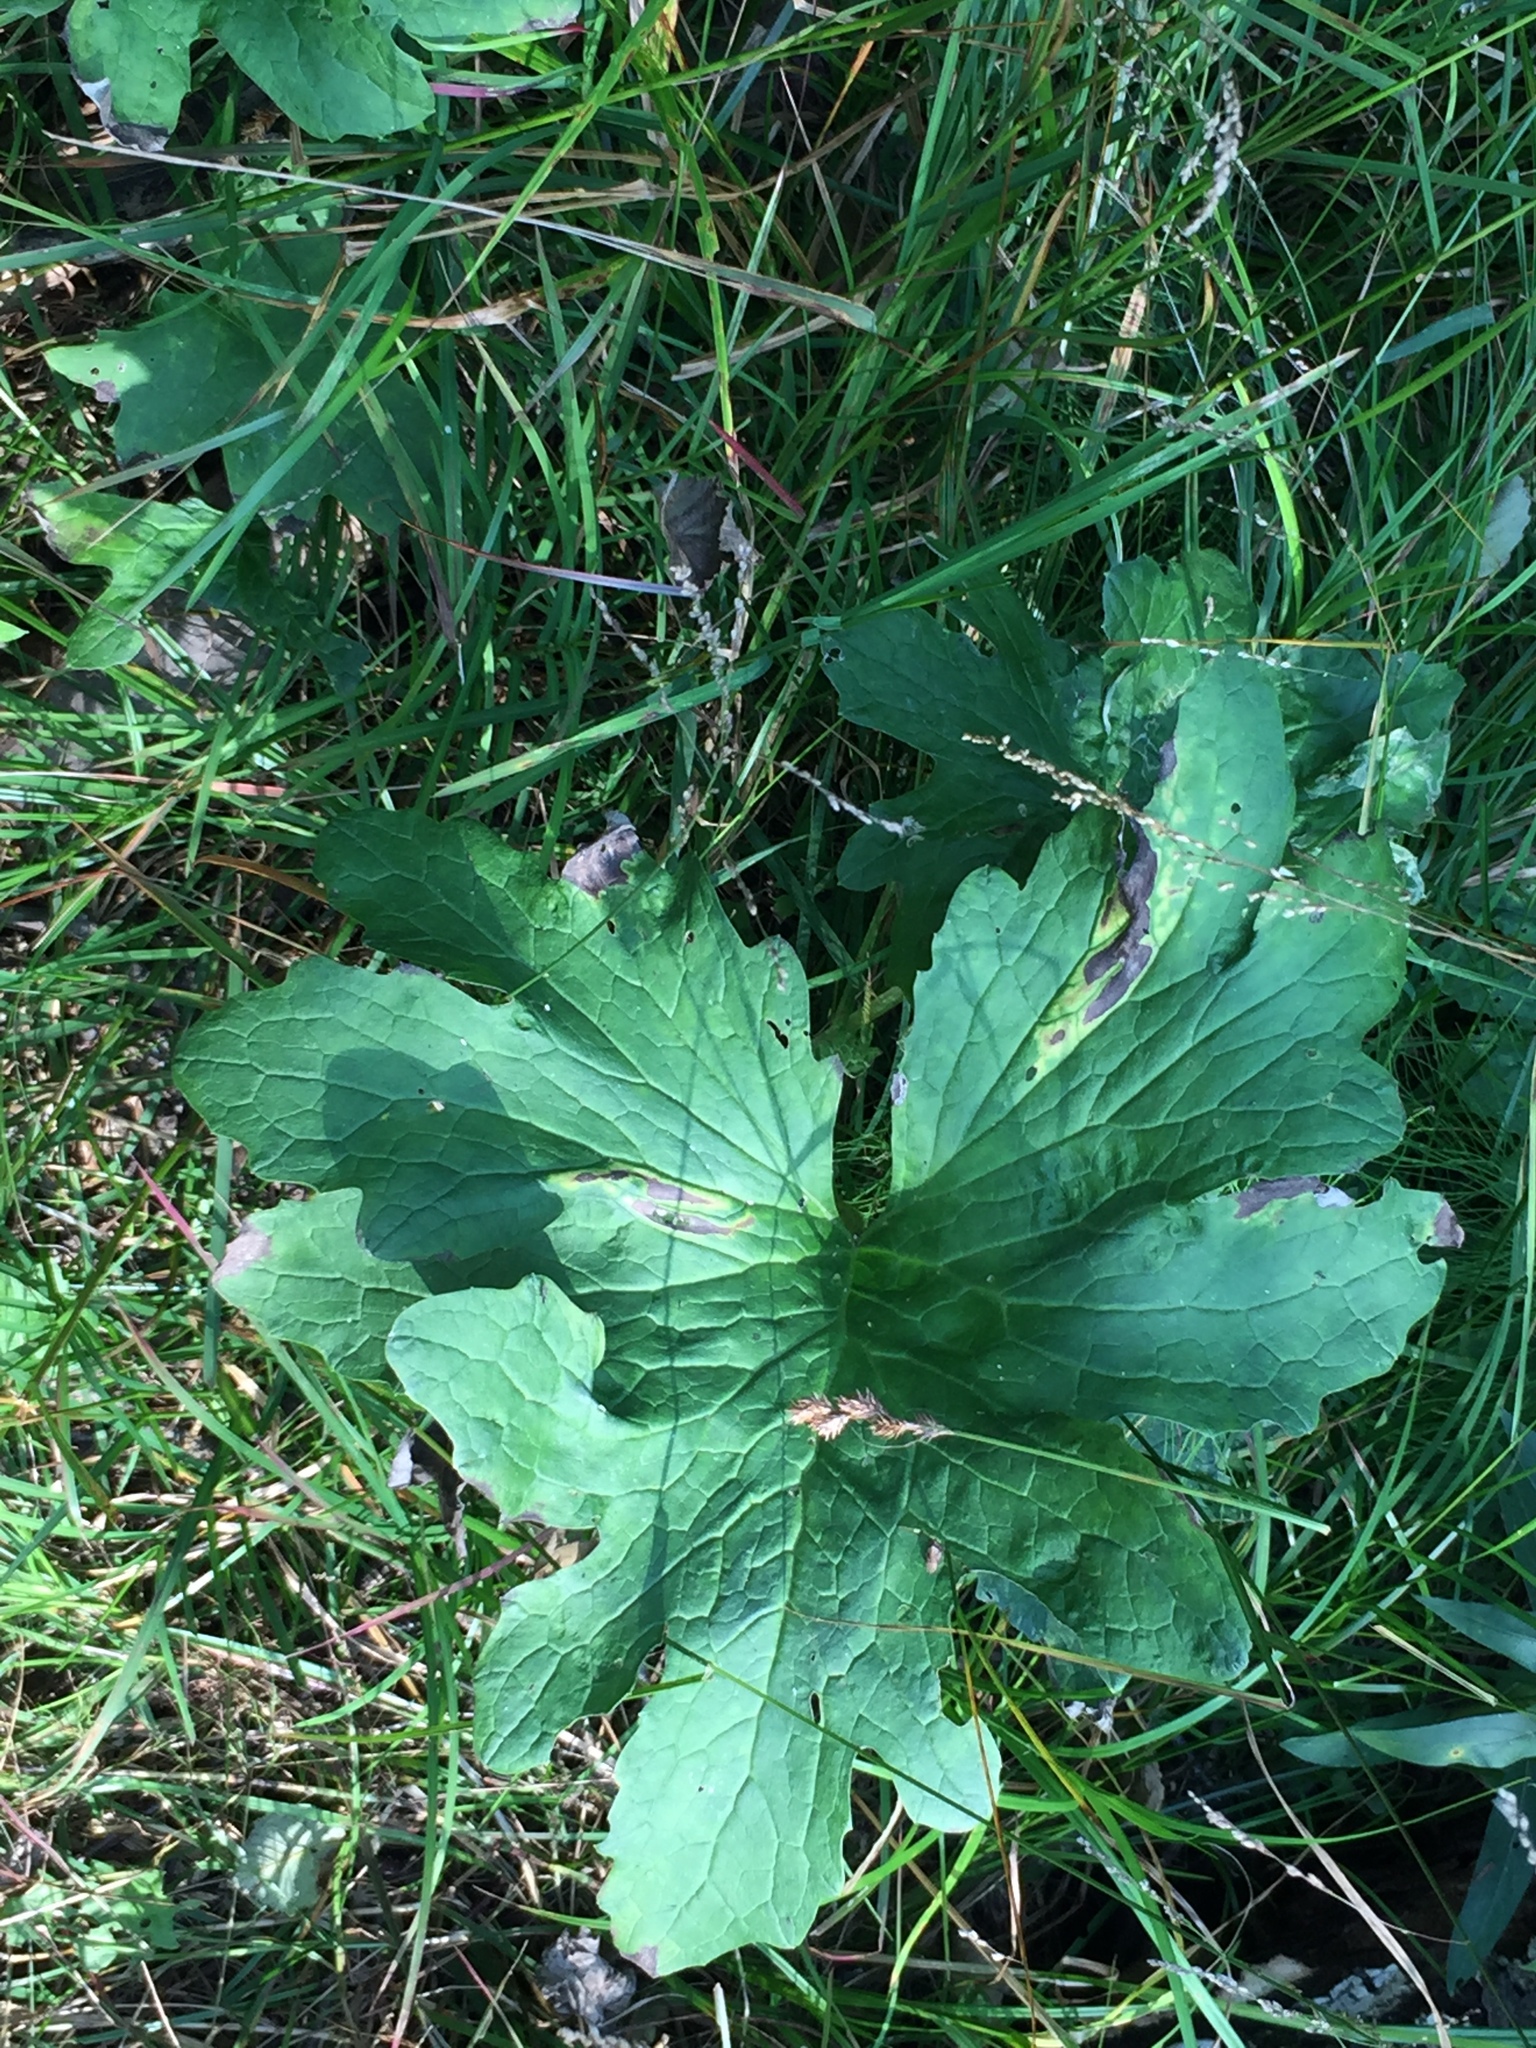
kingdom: Plantae
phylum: Tracheophyta
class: Magnoliopsida
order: Asterales
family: Asteraceae
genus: Petasites
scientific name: Petasites frigidus
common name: Arctic butterbur
